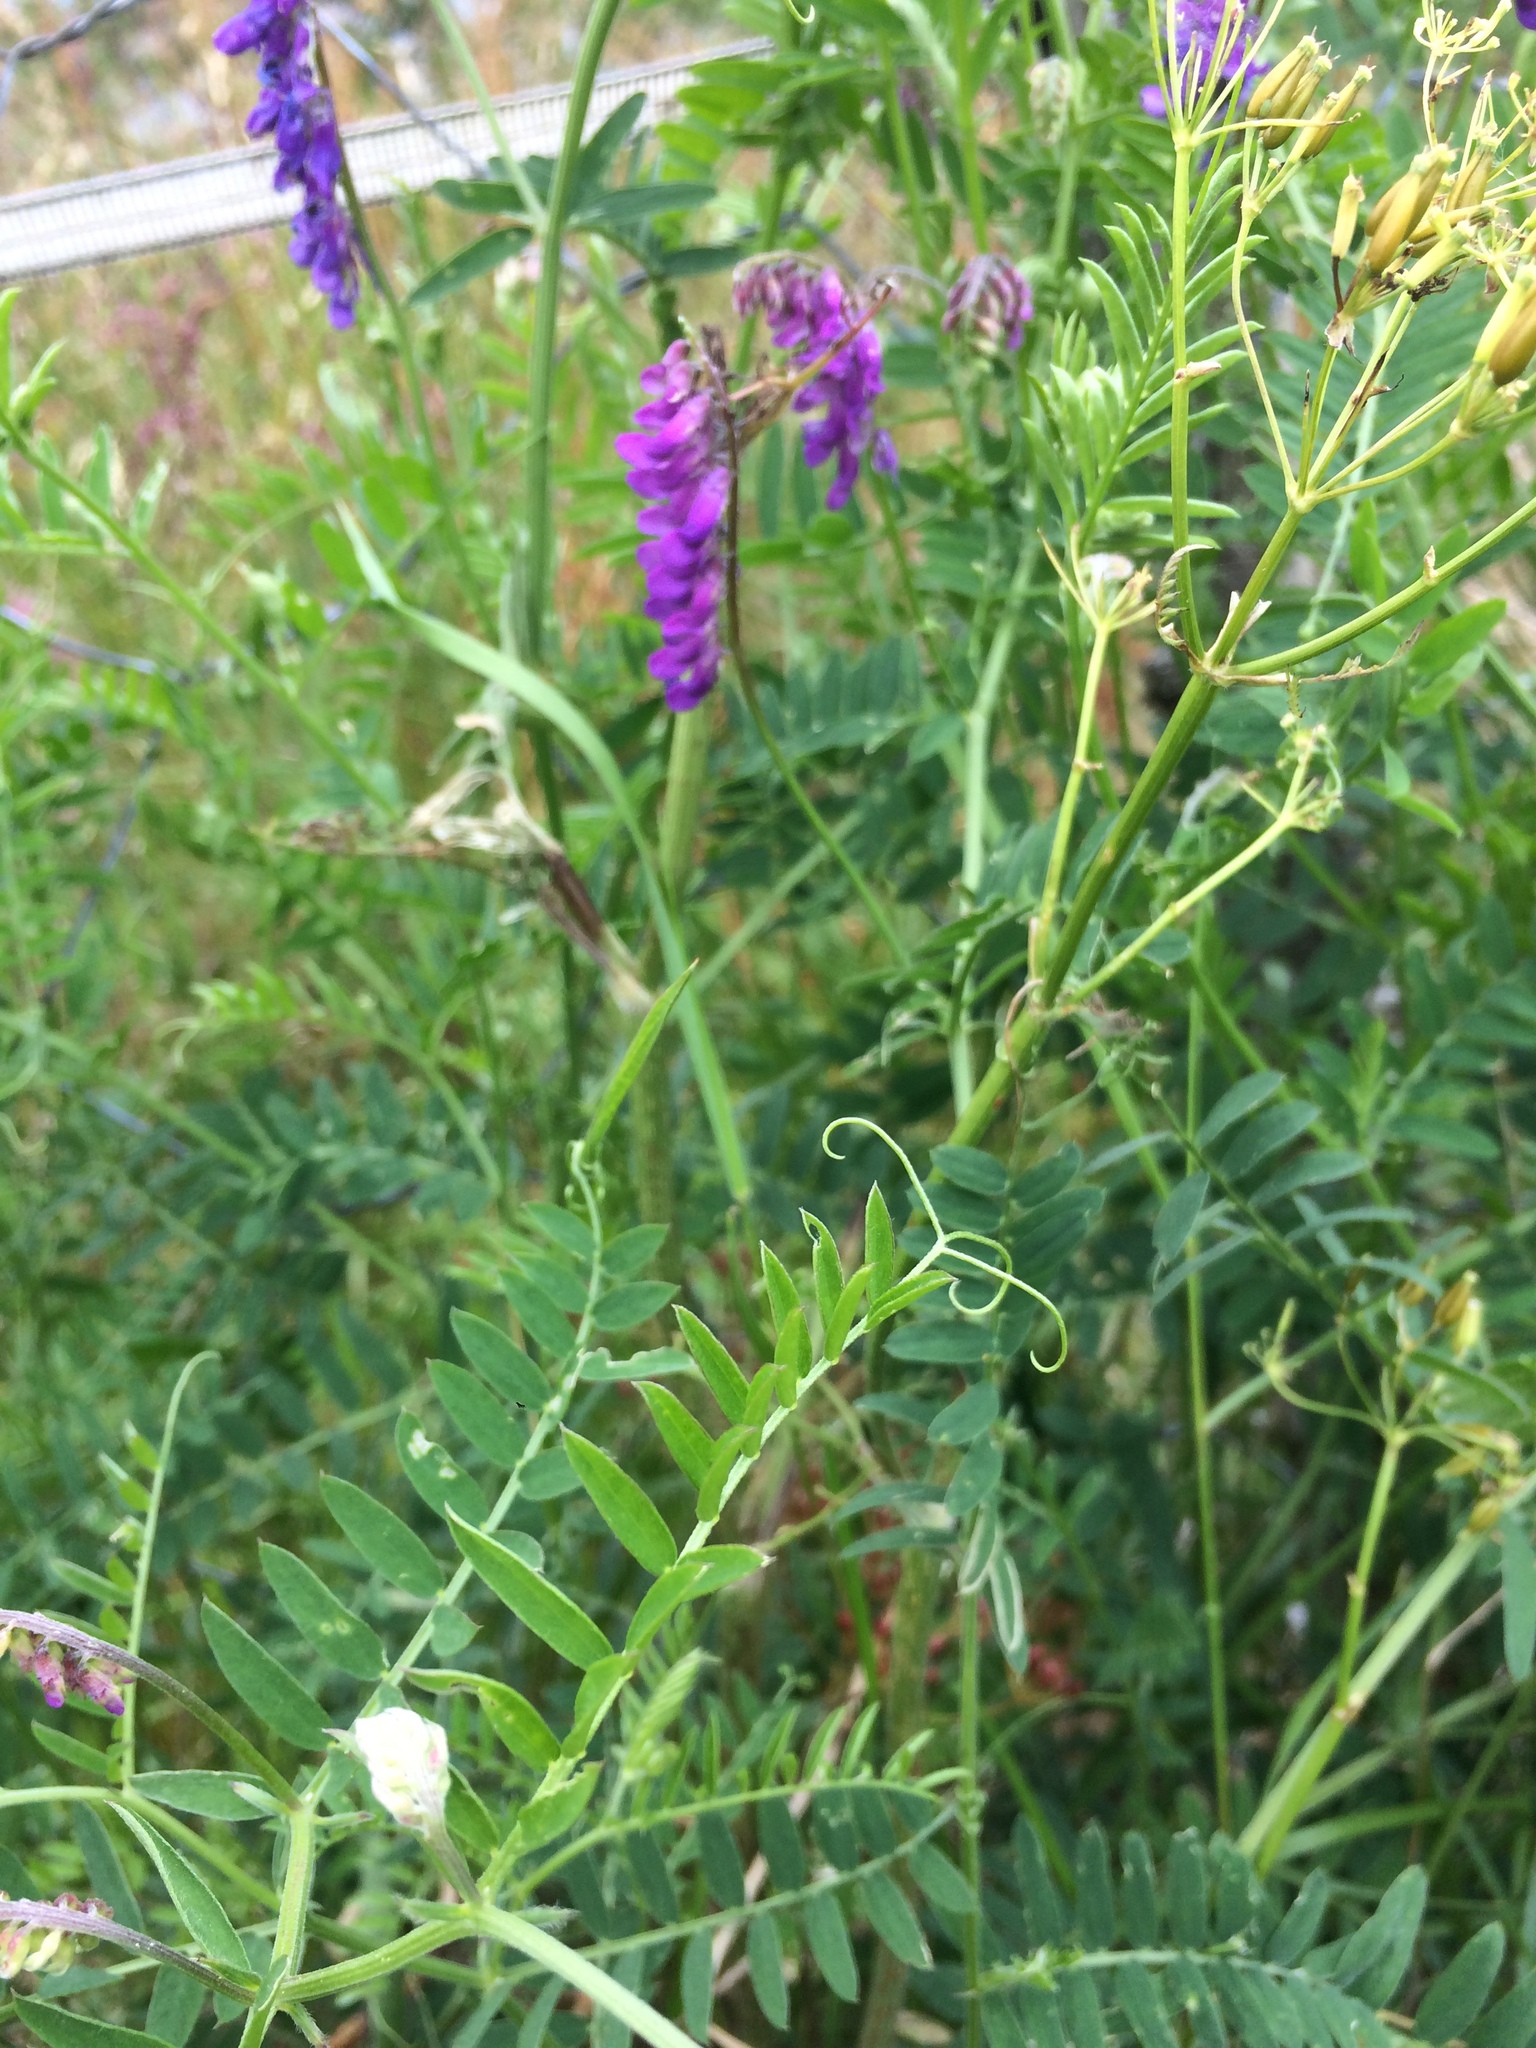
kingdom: Plantae
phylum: Tracheophyta
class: Magnoliopsida
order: Fabales
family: Fabaceae
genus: Vicia
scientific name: Vicia cracca
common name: Bird vetch
